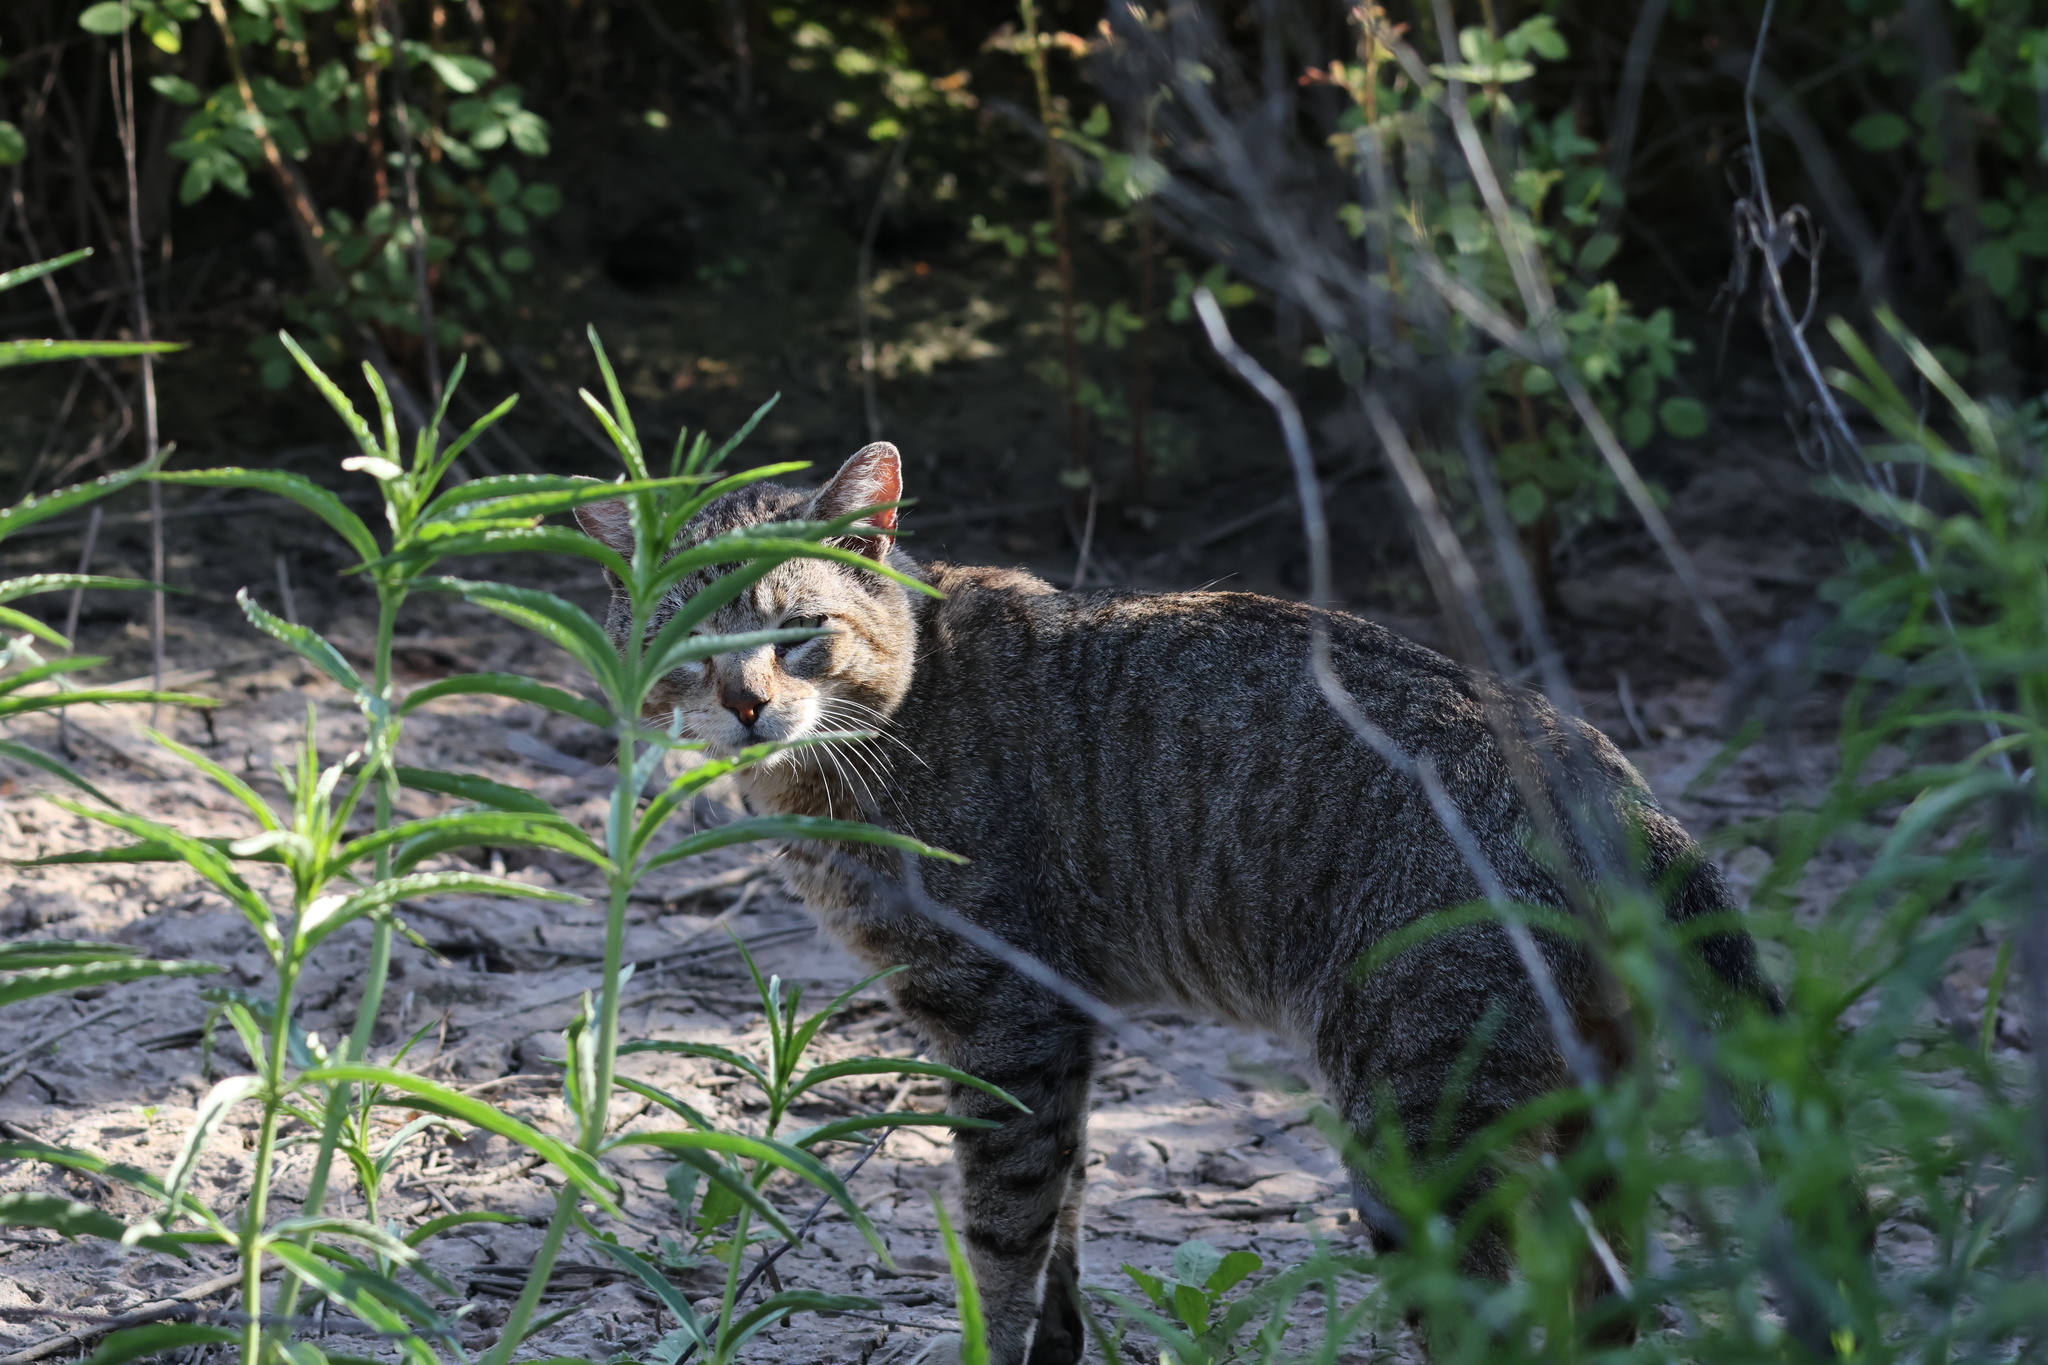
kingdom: Animalia
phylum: Chordata
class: Mammalia
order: Carnivora
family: Felidae
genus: Felis
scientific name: Felis catus
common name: Domestic cat
